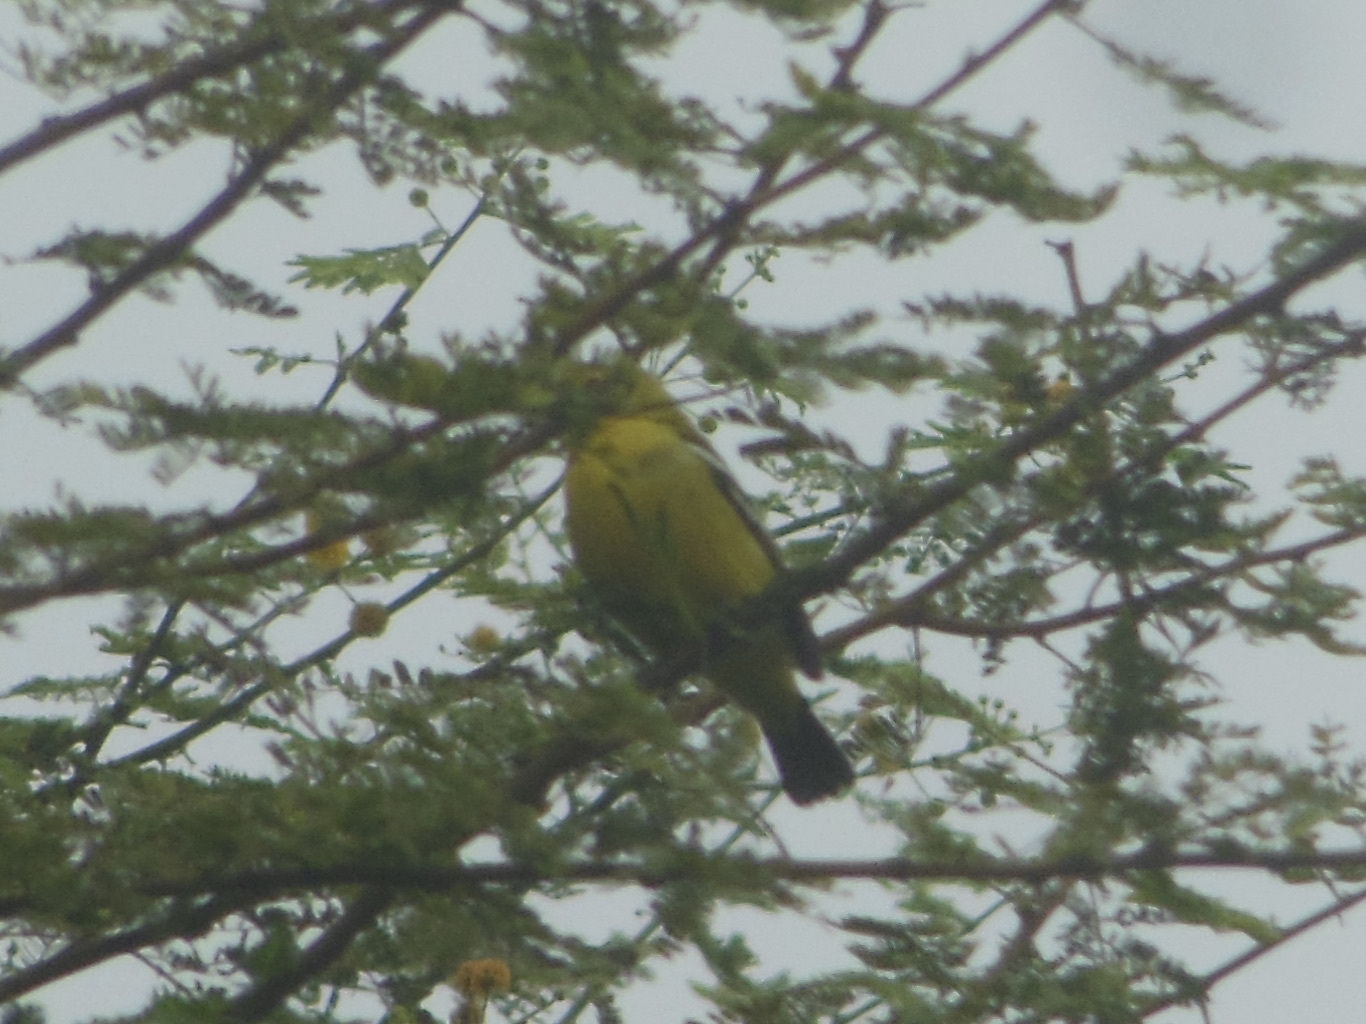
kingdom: Animalia
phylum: Chordata
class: Aves
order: Passeriformes
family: Aegithinidae
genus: Aegithina
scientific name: Aegithina tiphia
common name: Common iora
